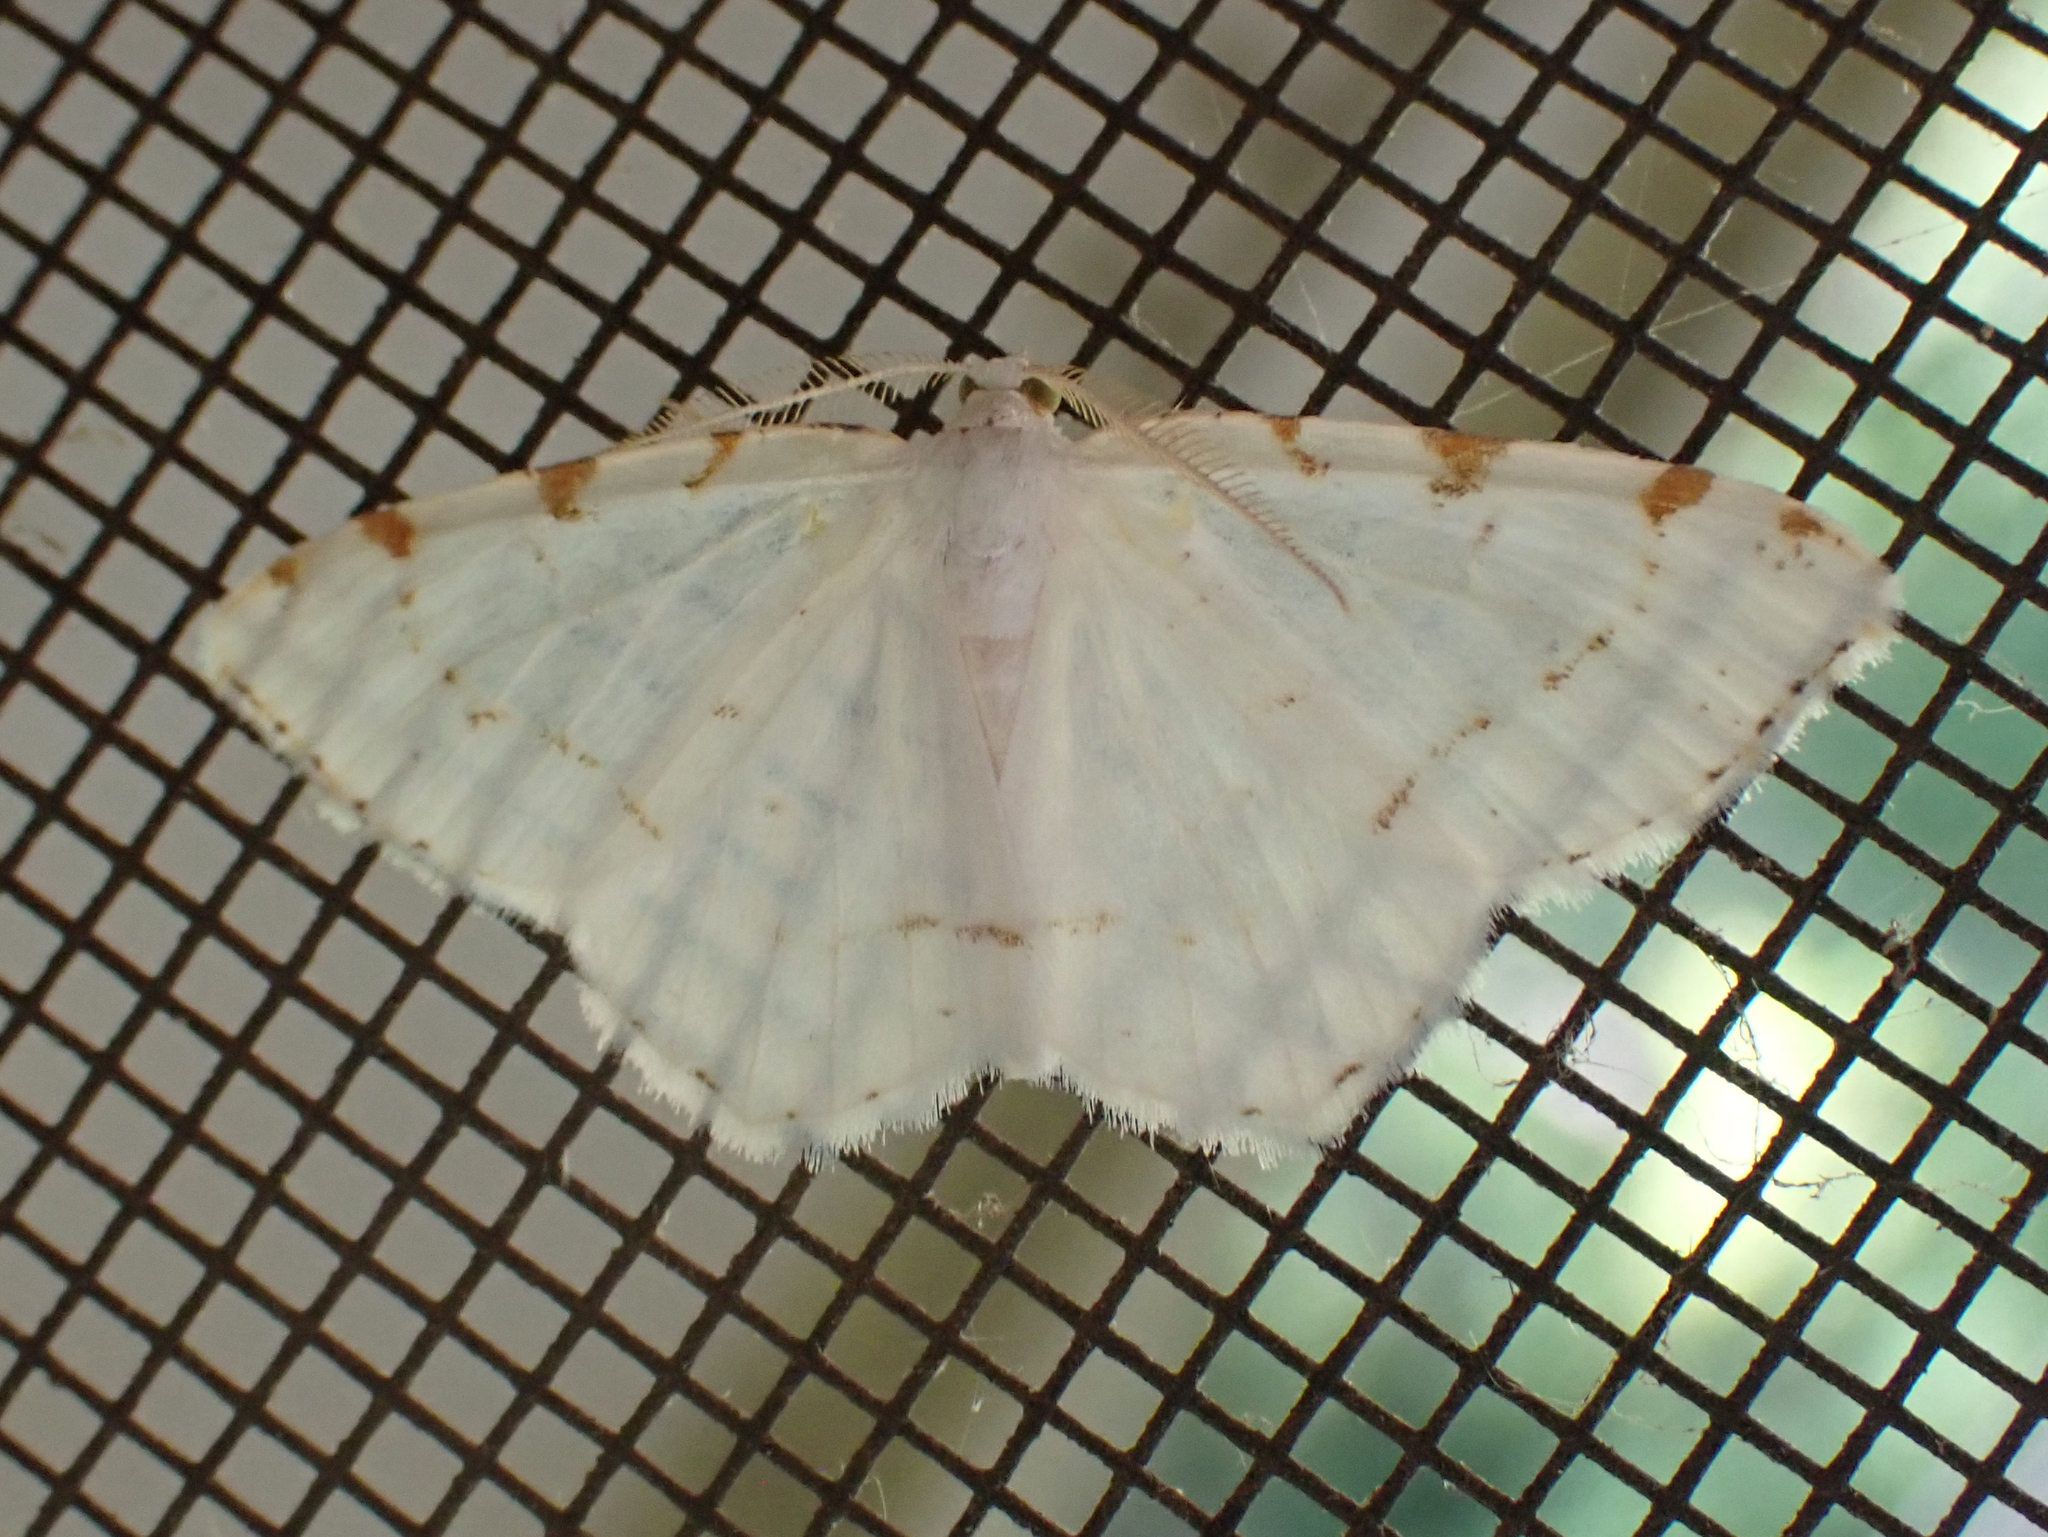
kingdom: Animalia
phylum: Arthropoda
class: Insecta
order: Lepidoptera
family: Geometridae
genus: Macaria
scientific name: Macaria pustularia
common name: Lesser maple spanworm moth
